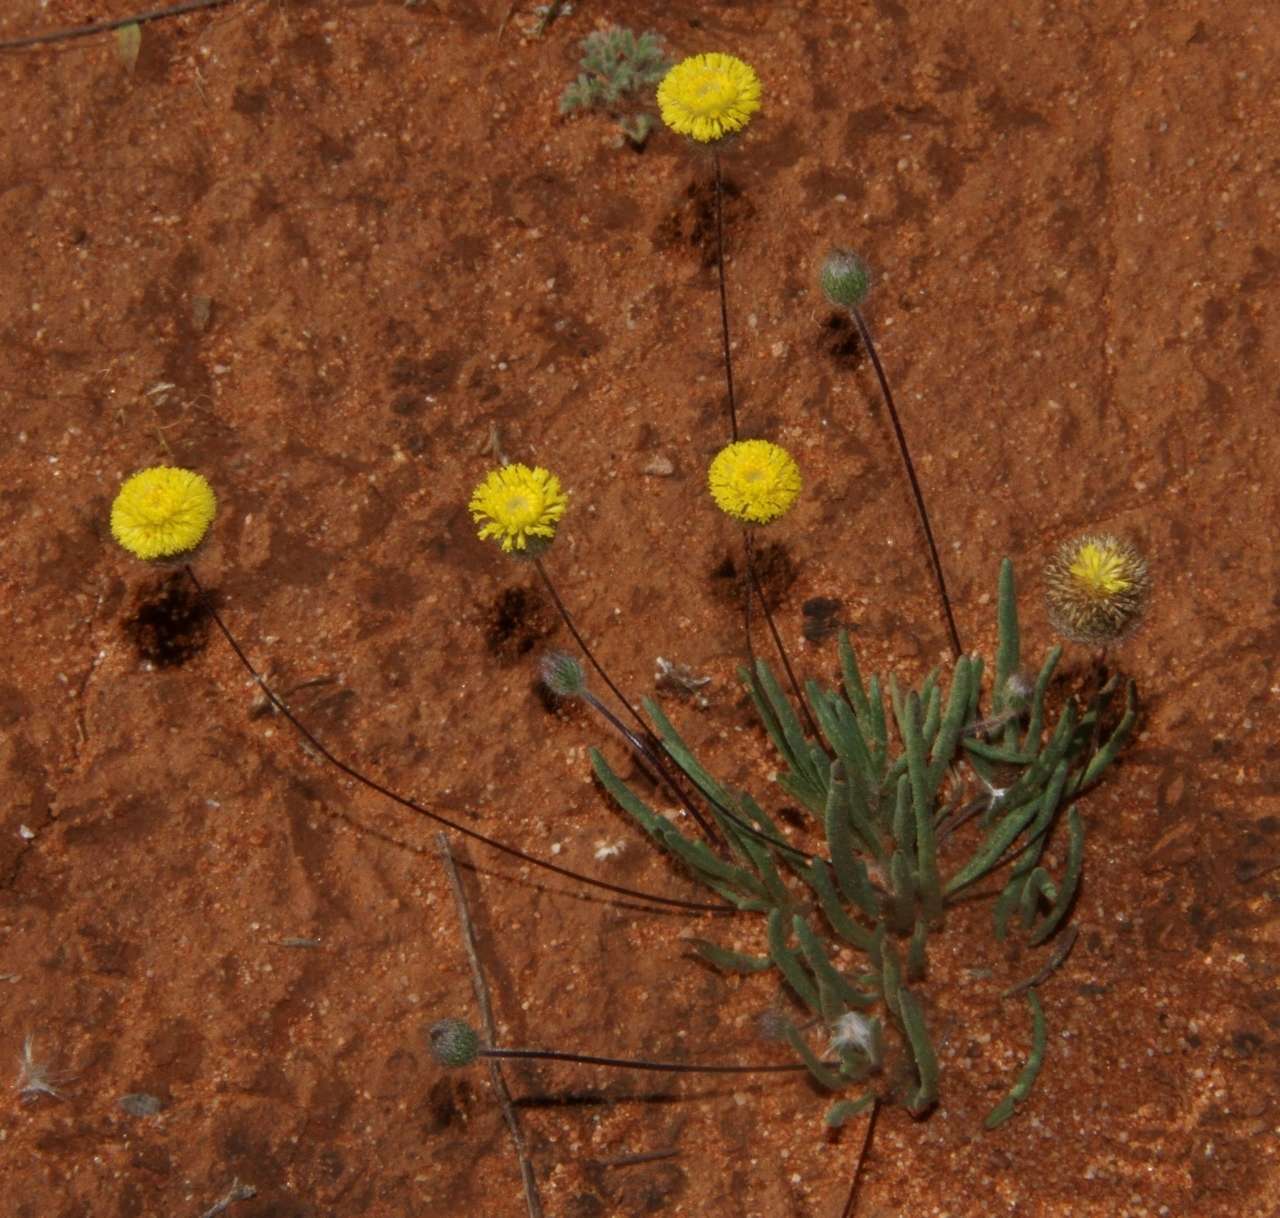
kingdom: Plantae
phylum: Tracheophyta
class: Magnoliopsida
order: Asterales
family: Asteraceae
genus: Asteridea
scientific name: Asteridea athrixioides
